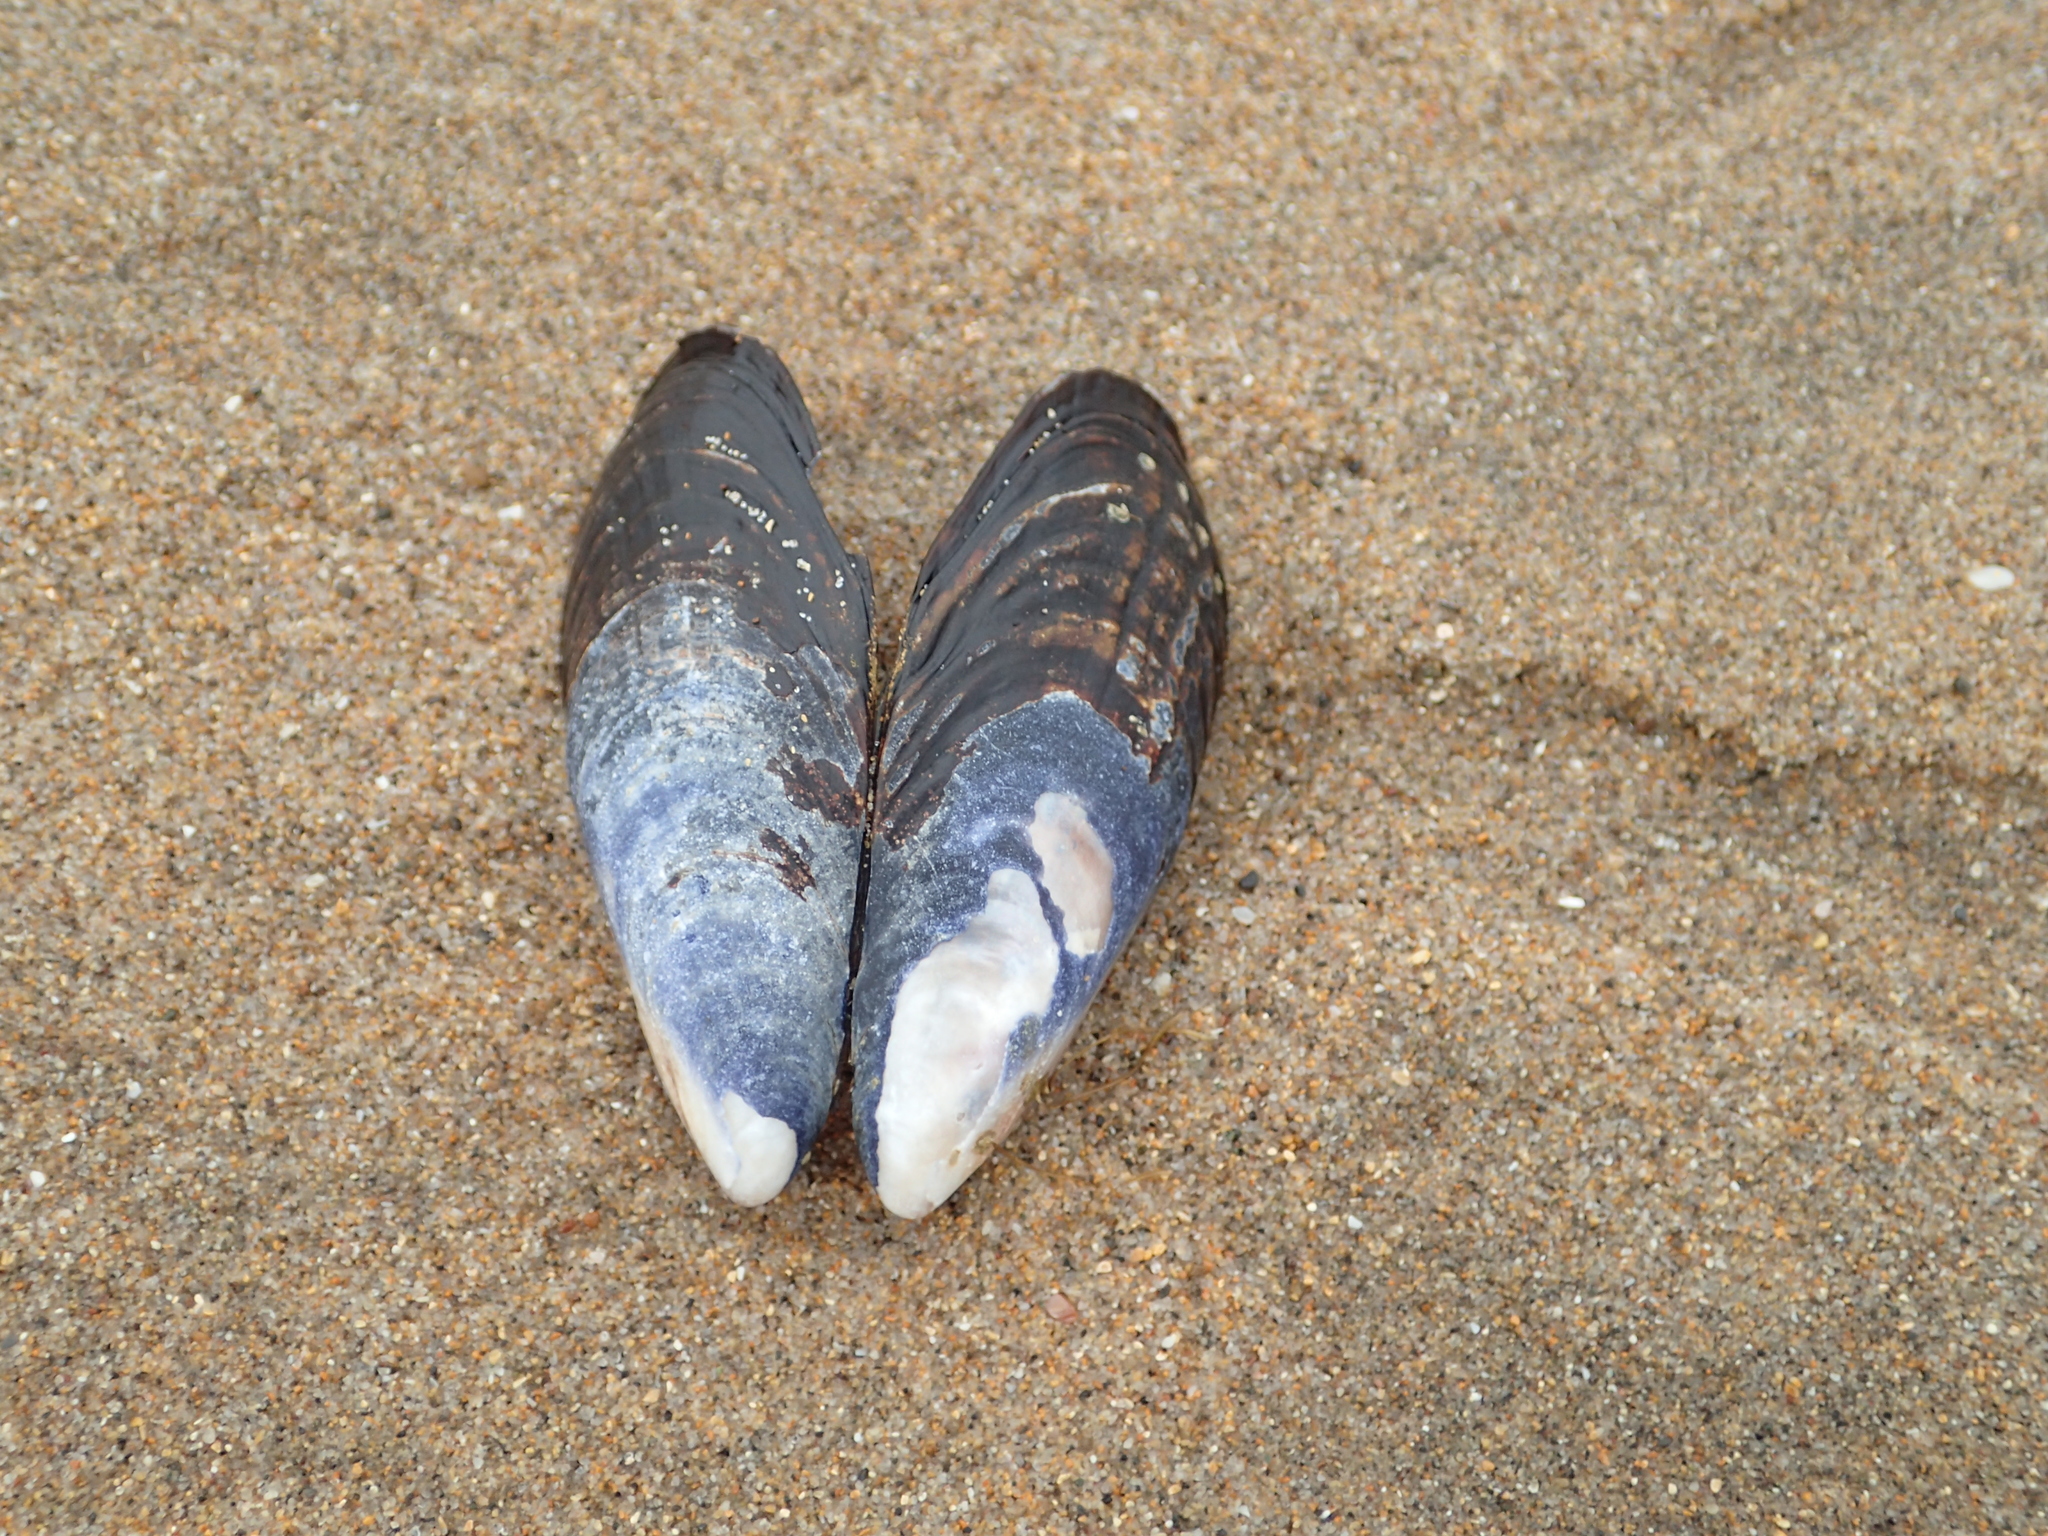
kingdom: Animalia
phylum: Mollusca
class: Bivalvia
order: Mytilida
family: Mytilidae
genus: Mytilus
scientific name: Mytilus californianus
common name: California mussel
